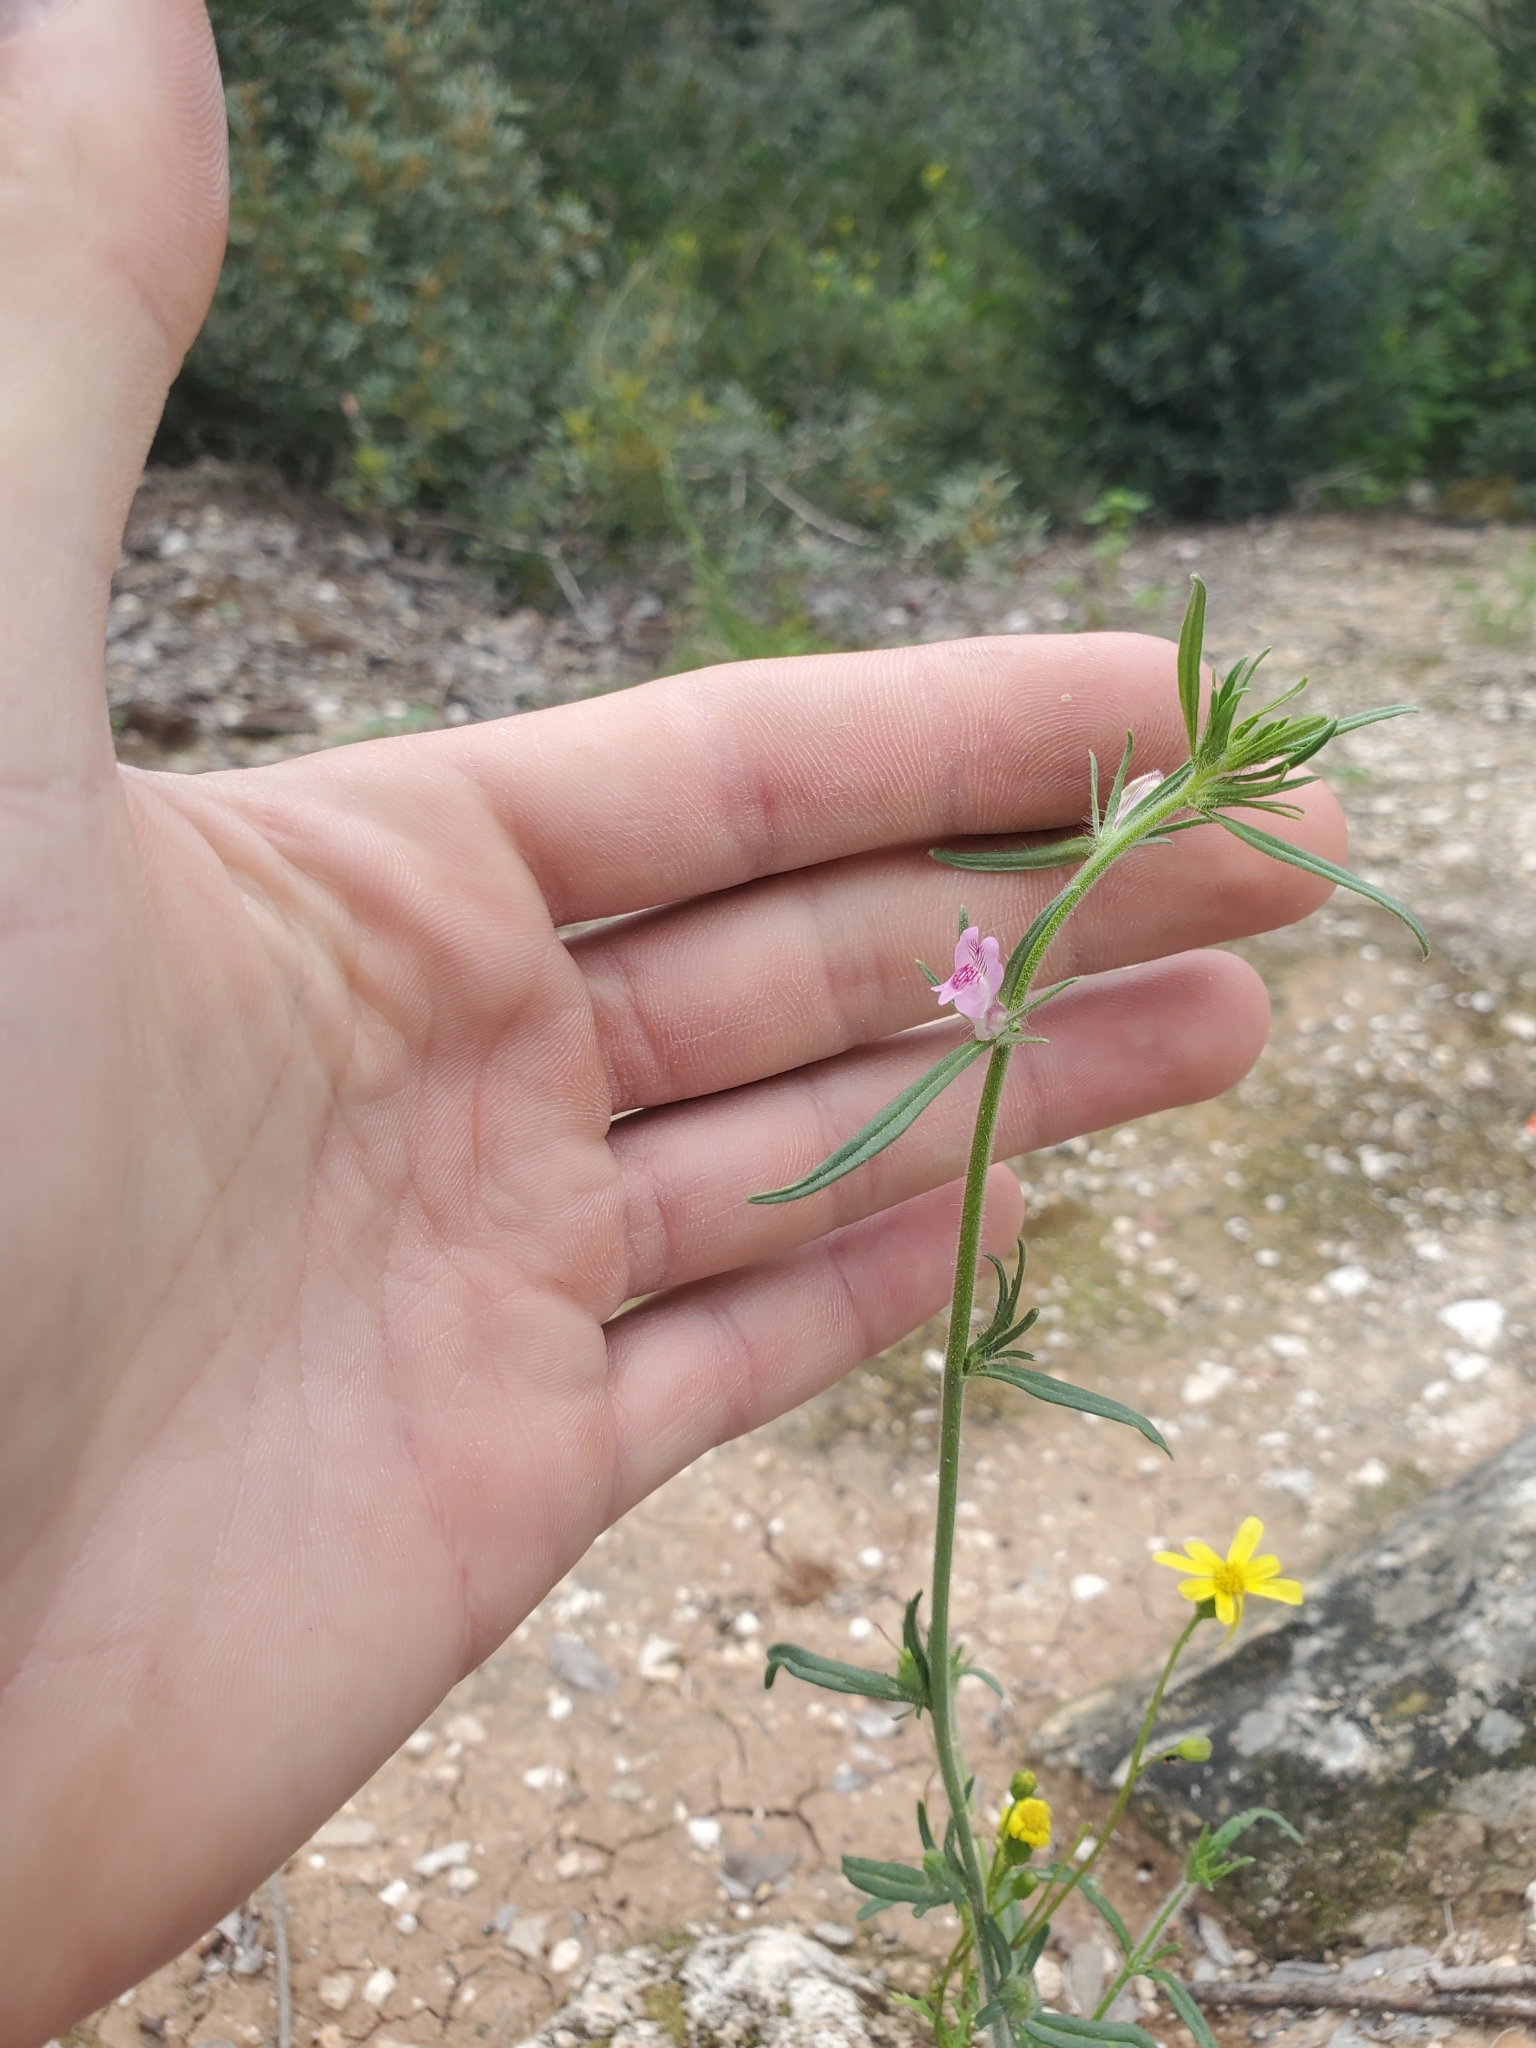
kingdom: Plantae
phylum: Tracheophyta
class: Magnoliopsida
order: Lamiales
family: Plantaginaceae
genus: Misopates
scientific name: Misopates orontium
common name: Weasel's-snout
